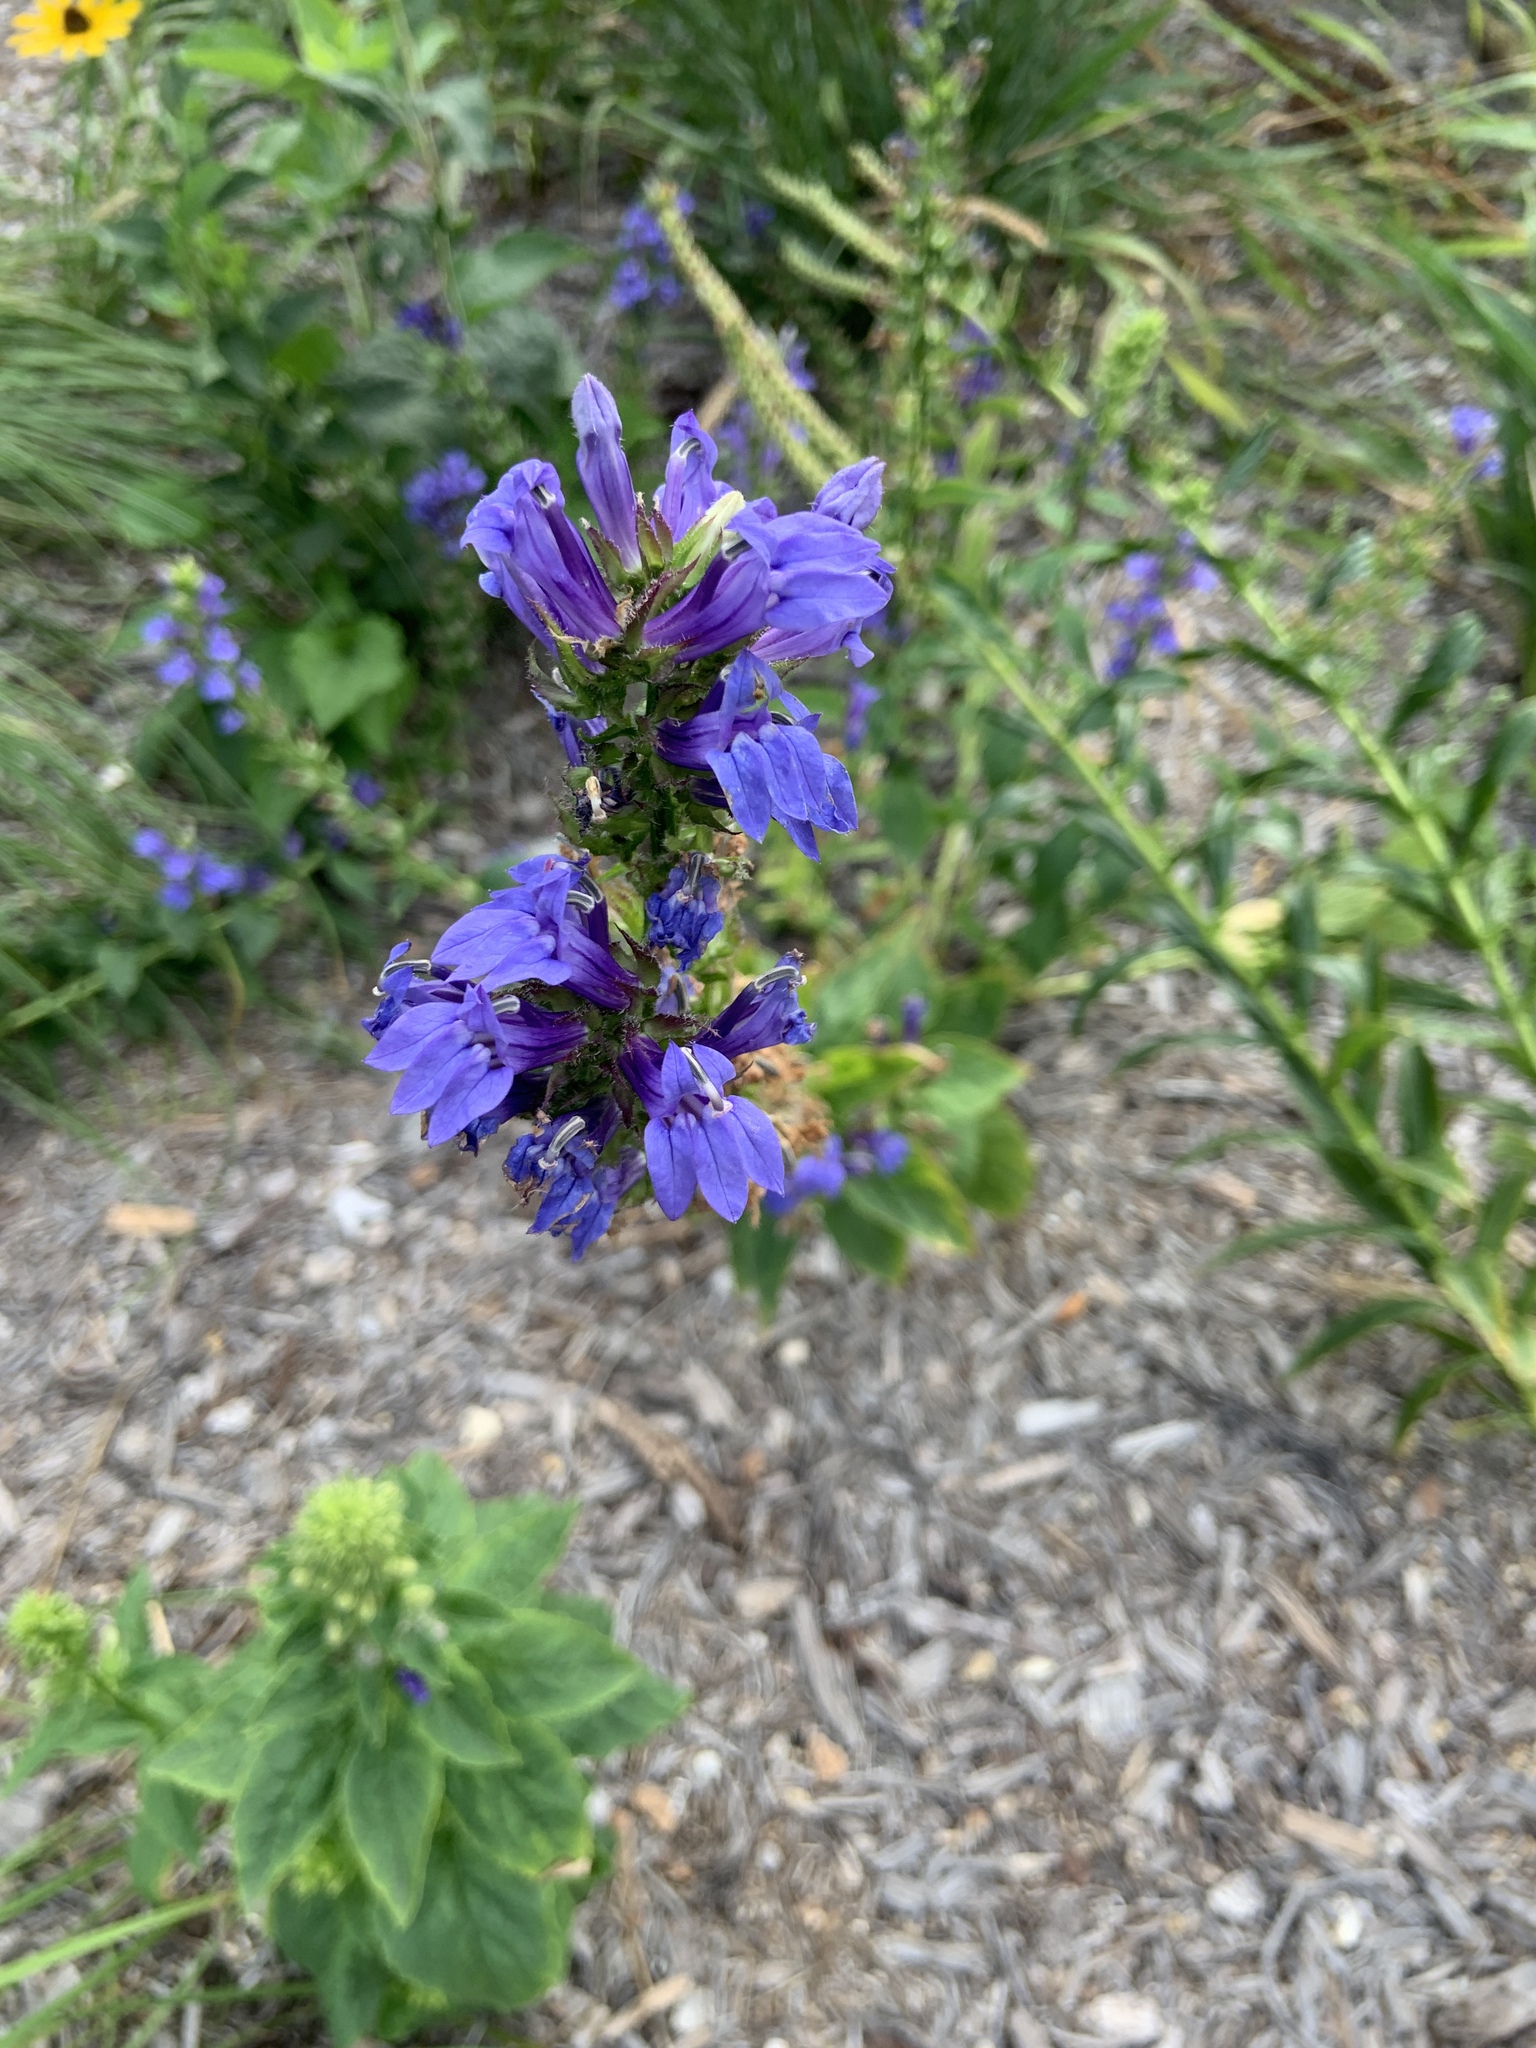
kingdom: Plantae
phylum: Tracheophyta
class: Magnoliopsida
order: Asterales
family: Campanulaceae
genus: Lobelia
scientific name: Lobelia siphilitica
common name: Great lobelia
